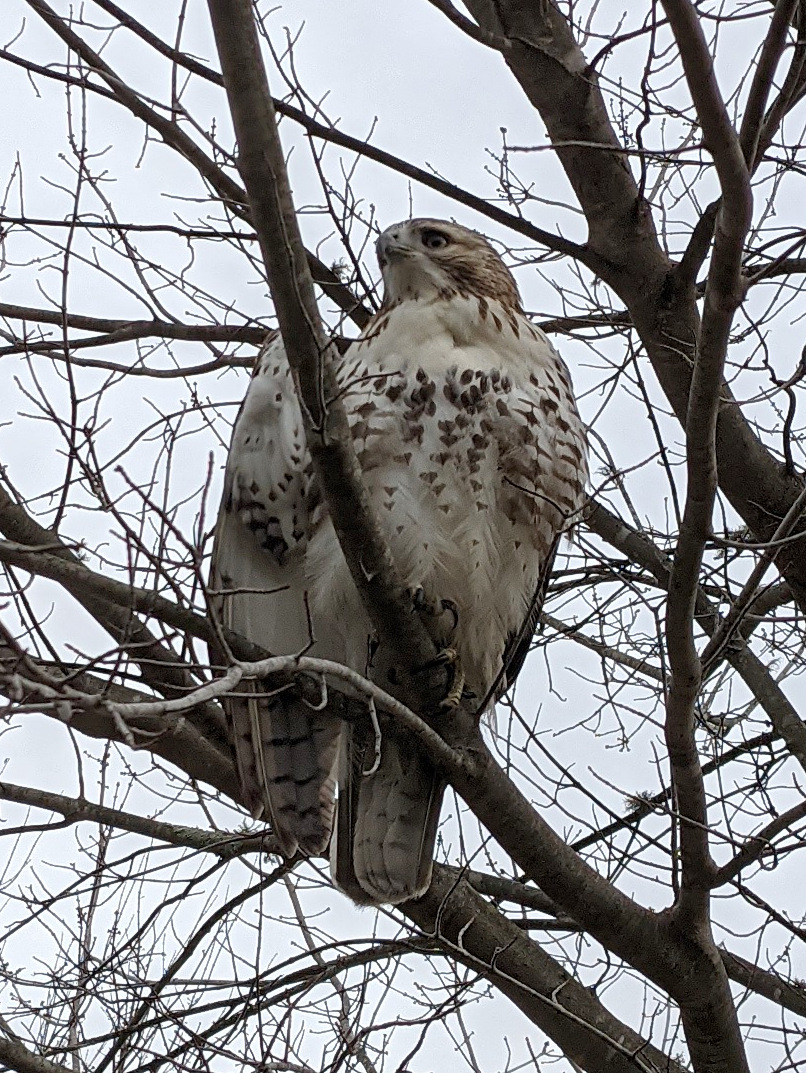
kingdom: Animalia
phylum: Chordata
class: Aves
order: Accipitriformes
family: Accipitridae
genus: Buteo
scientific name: Buteo jamaicensis
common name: Red-tailed hawk
